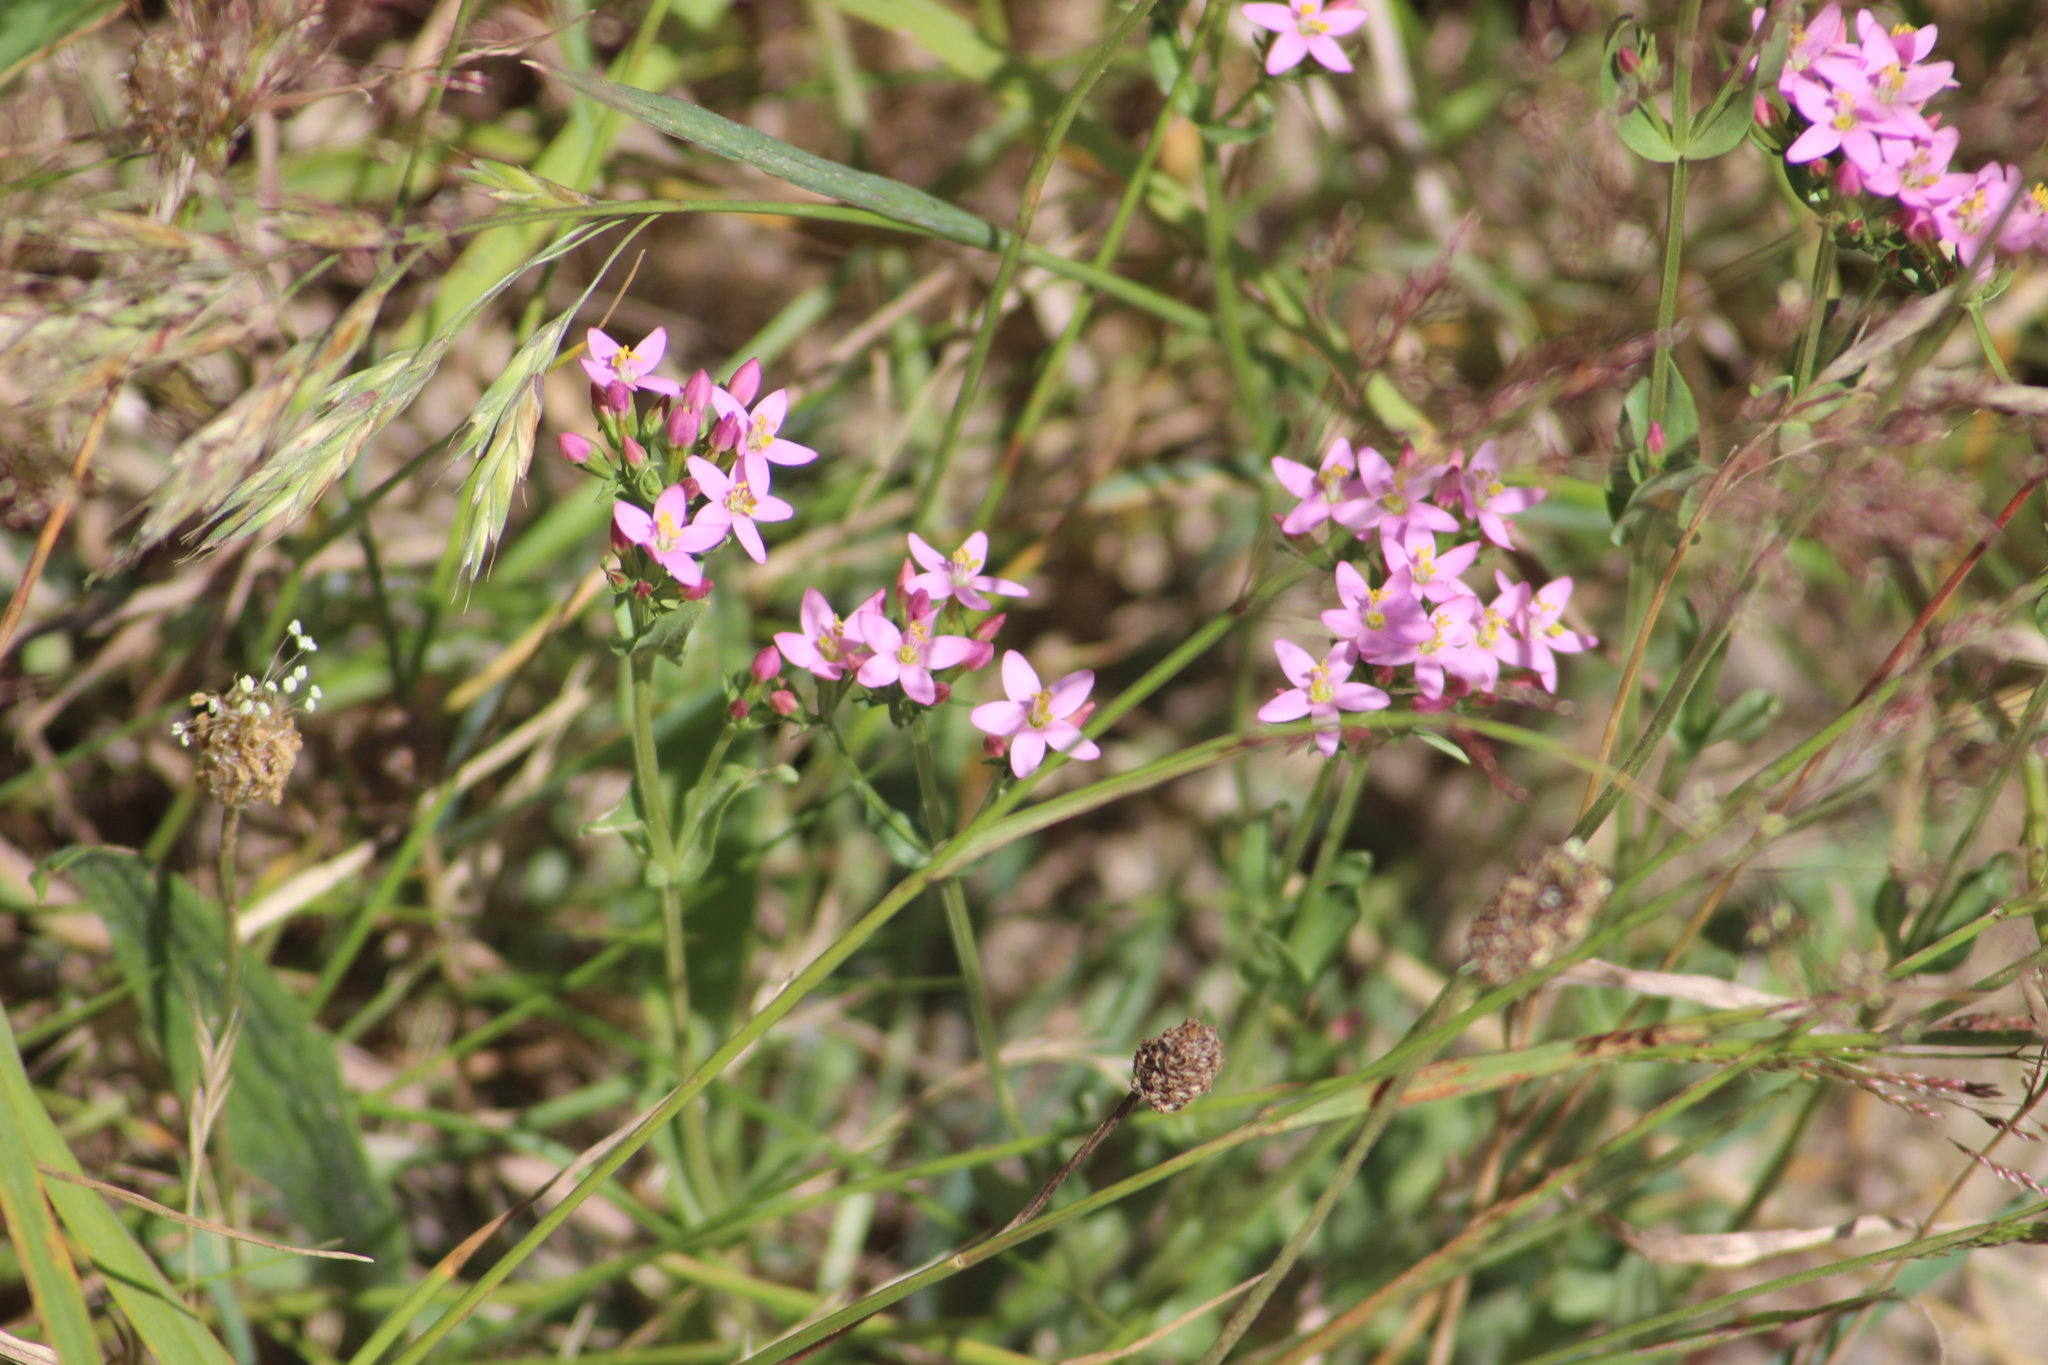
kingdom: Plantae
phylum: Tracheophyta
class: Magnoliopsida
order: Gentianales
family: Gentianaceae
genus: Centaurium
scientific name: Centaurium erythraea
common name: Common centaury
